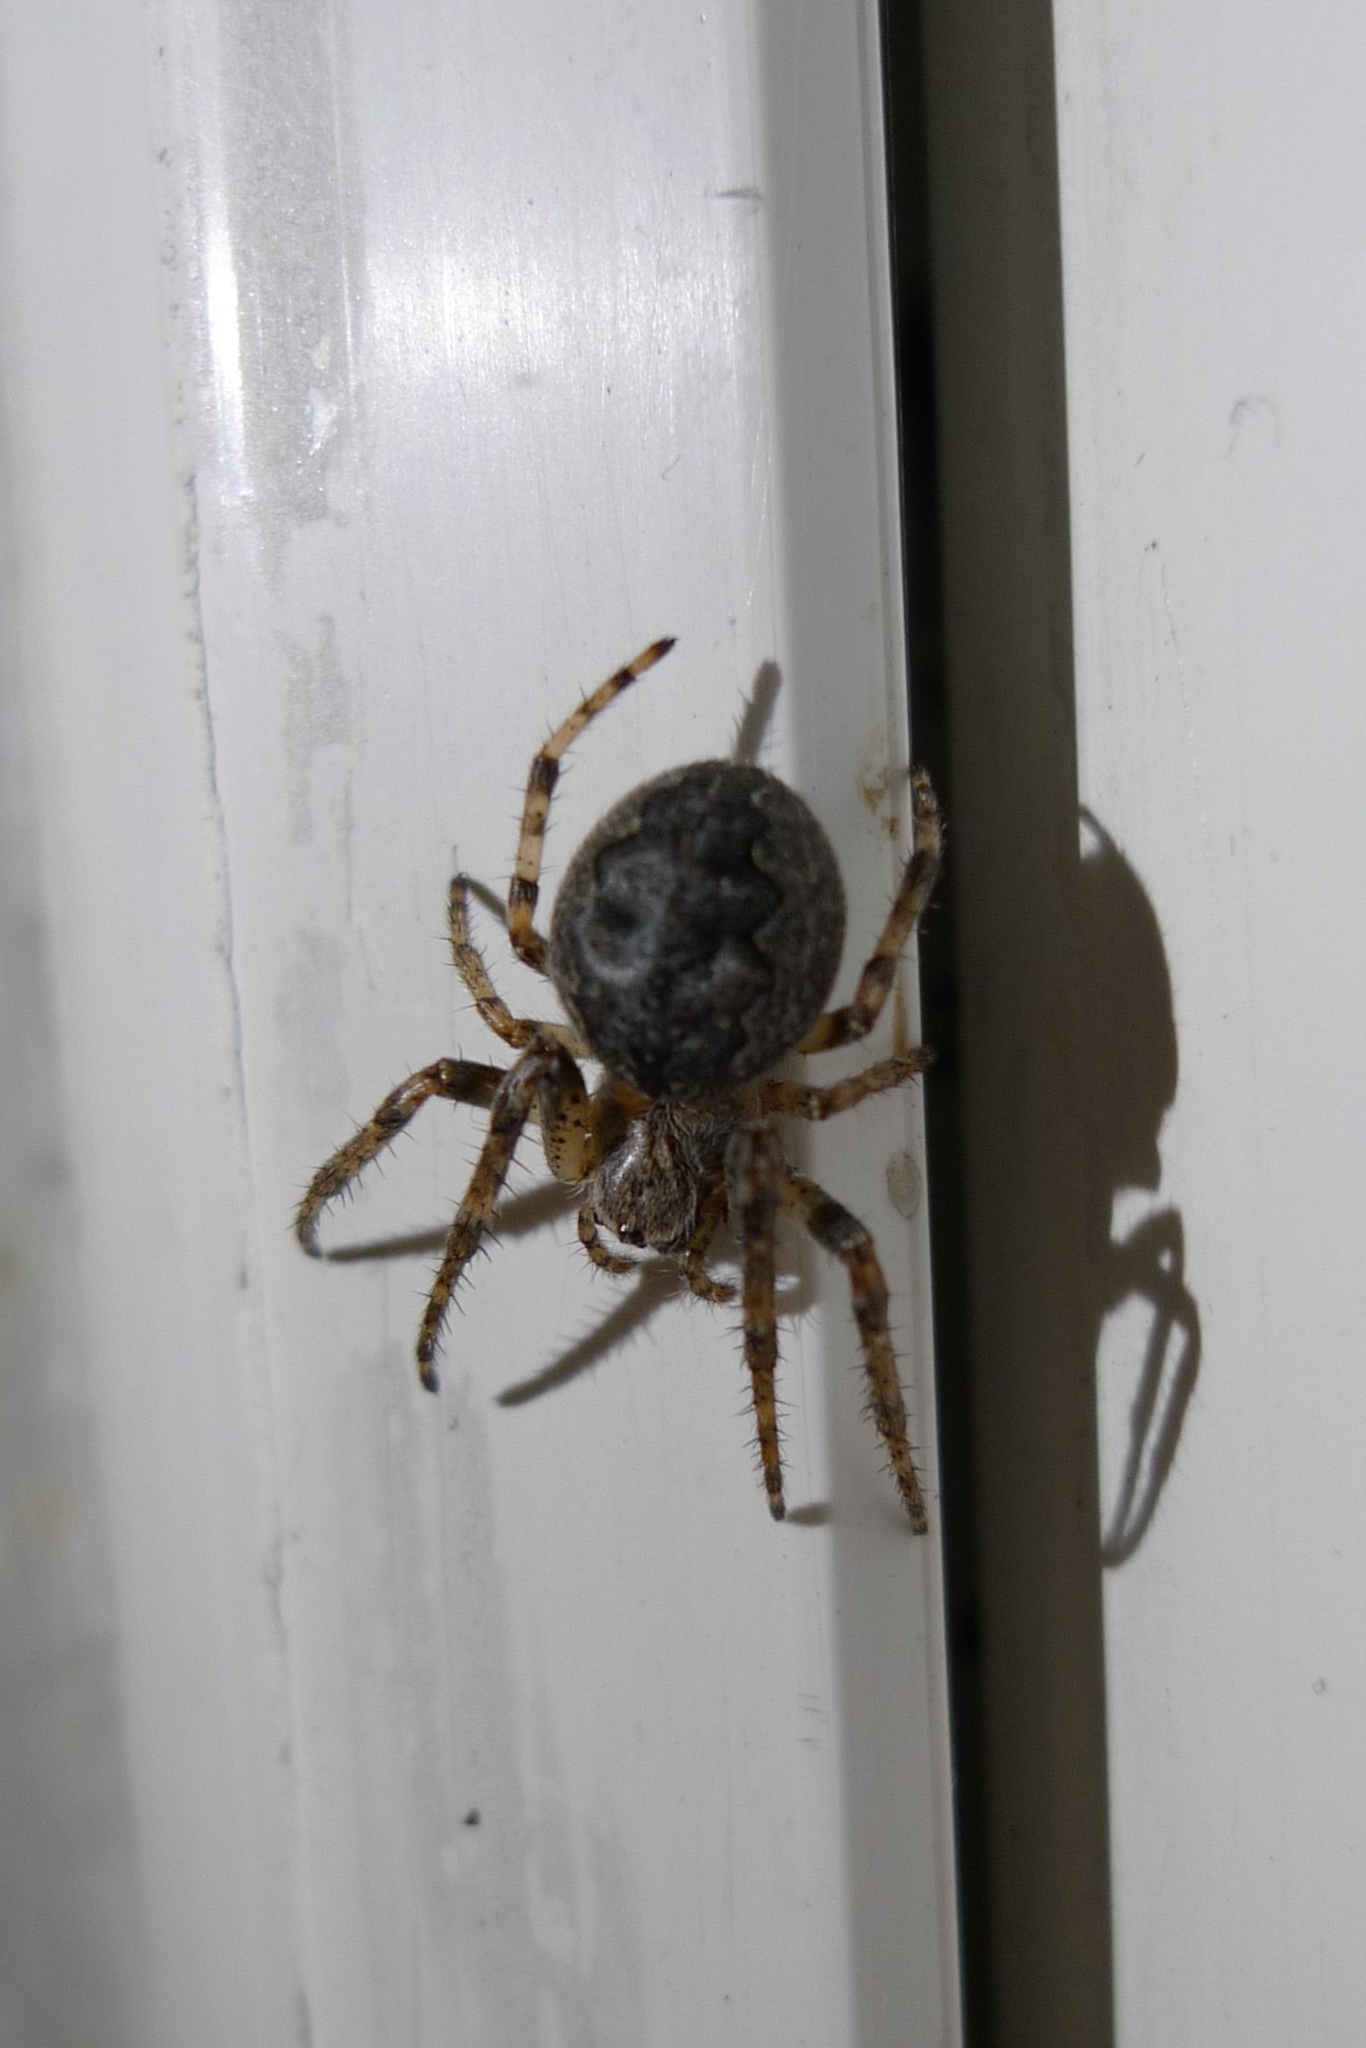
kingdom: Animalia
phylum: Arthropoda
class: Arachnida
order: Araneae
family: Araneidae
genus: Larinioides
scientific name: Larinioides ixobolus
